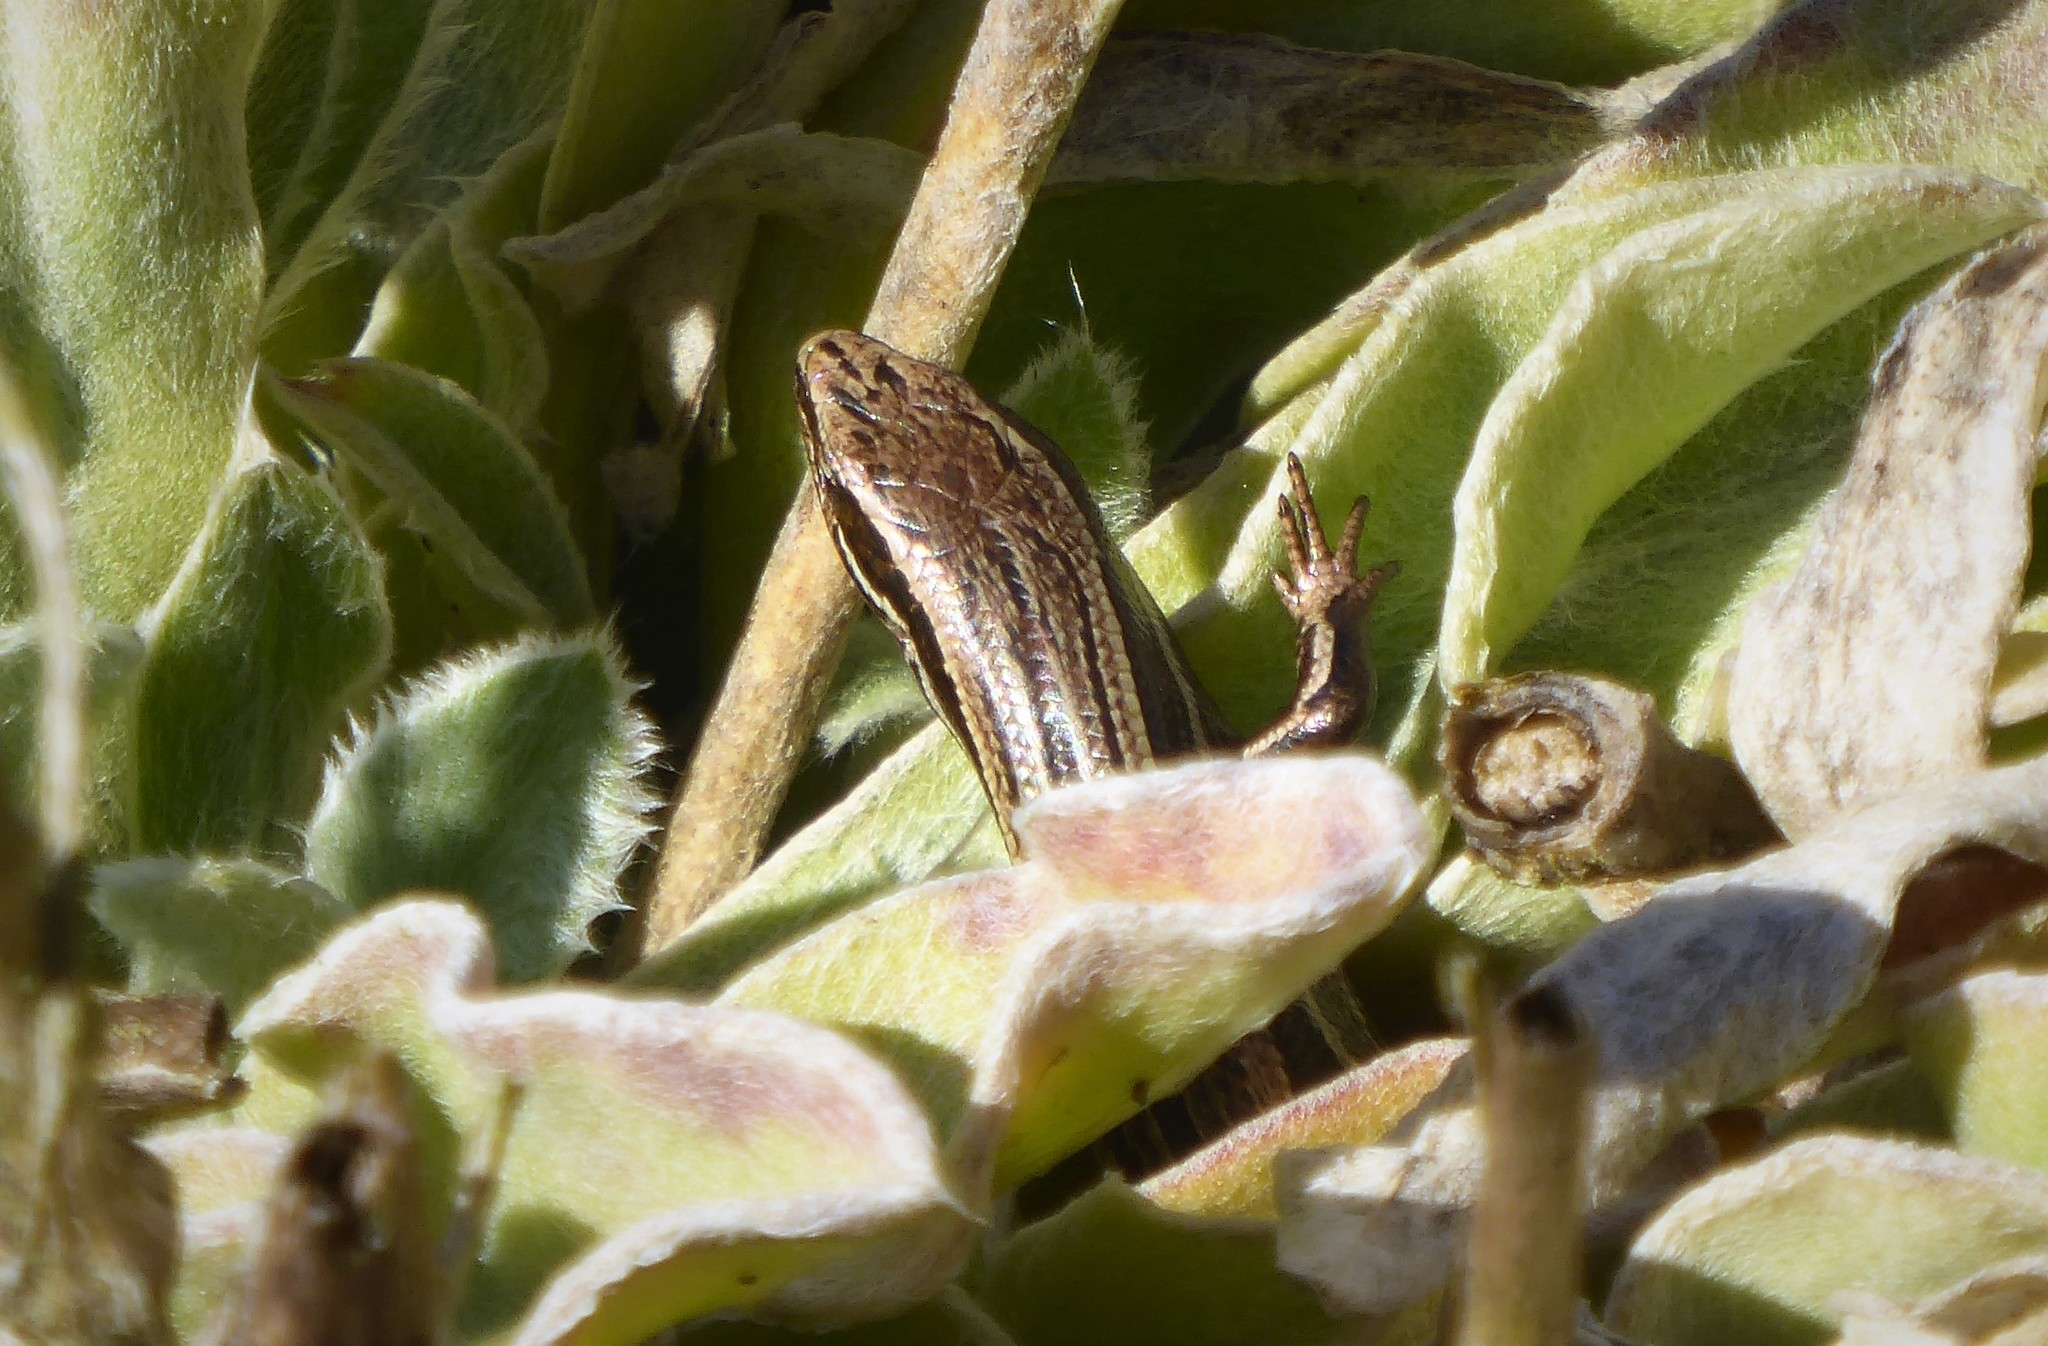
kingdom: Animalia
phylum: Chordata
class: Squamata
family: Scincidae
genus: Oligosoma
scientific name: Oligosoma polychroma
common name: Common new zealand skink
